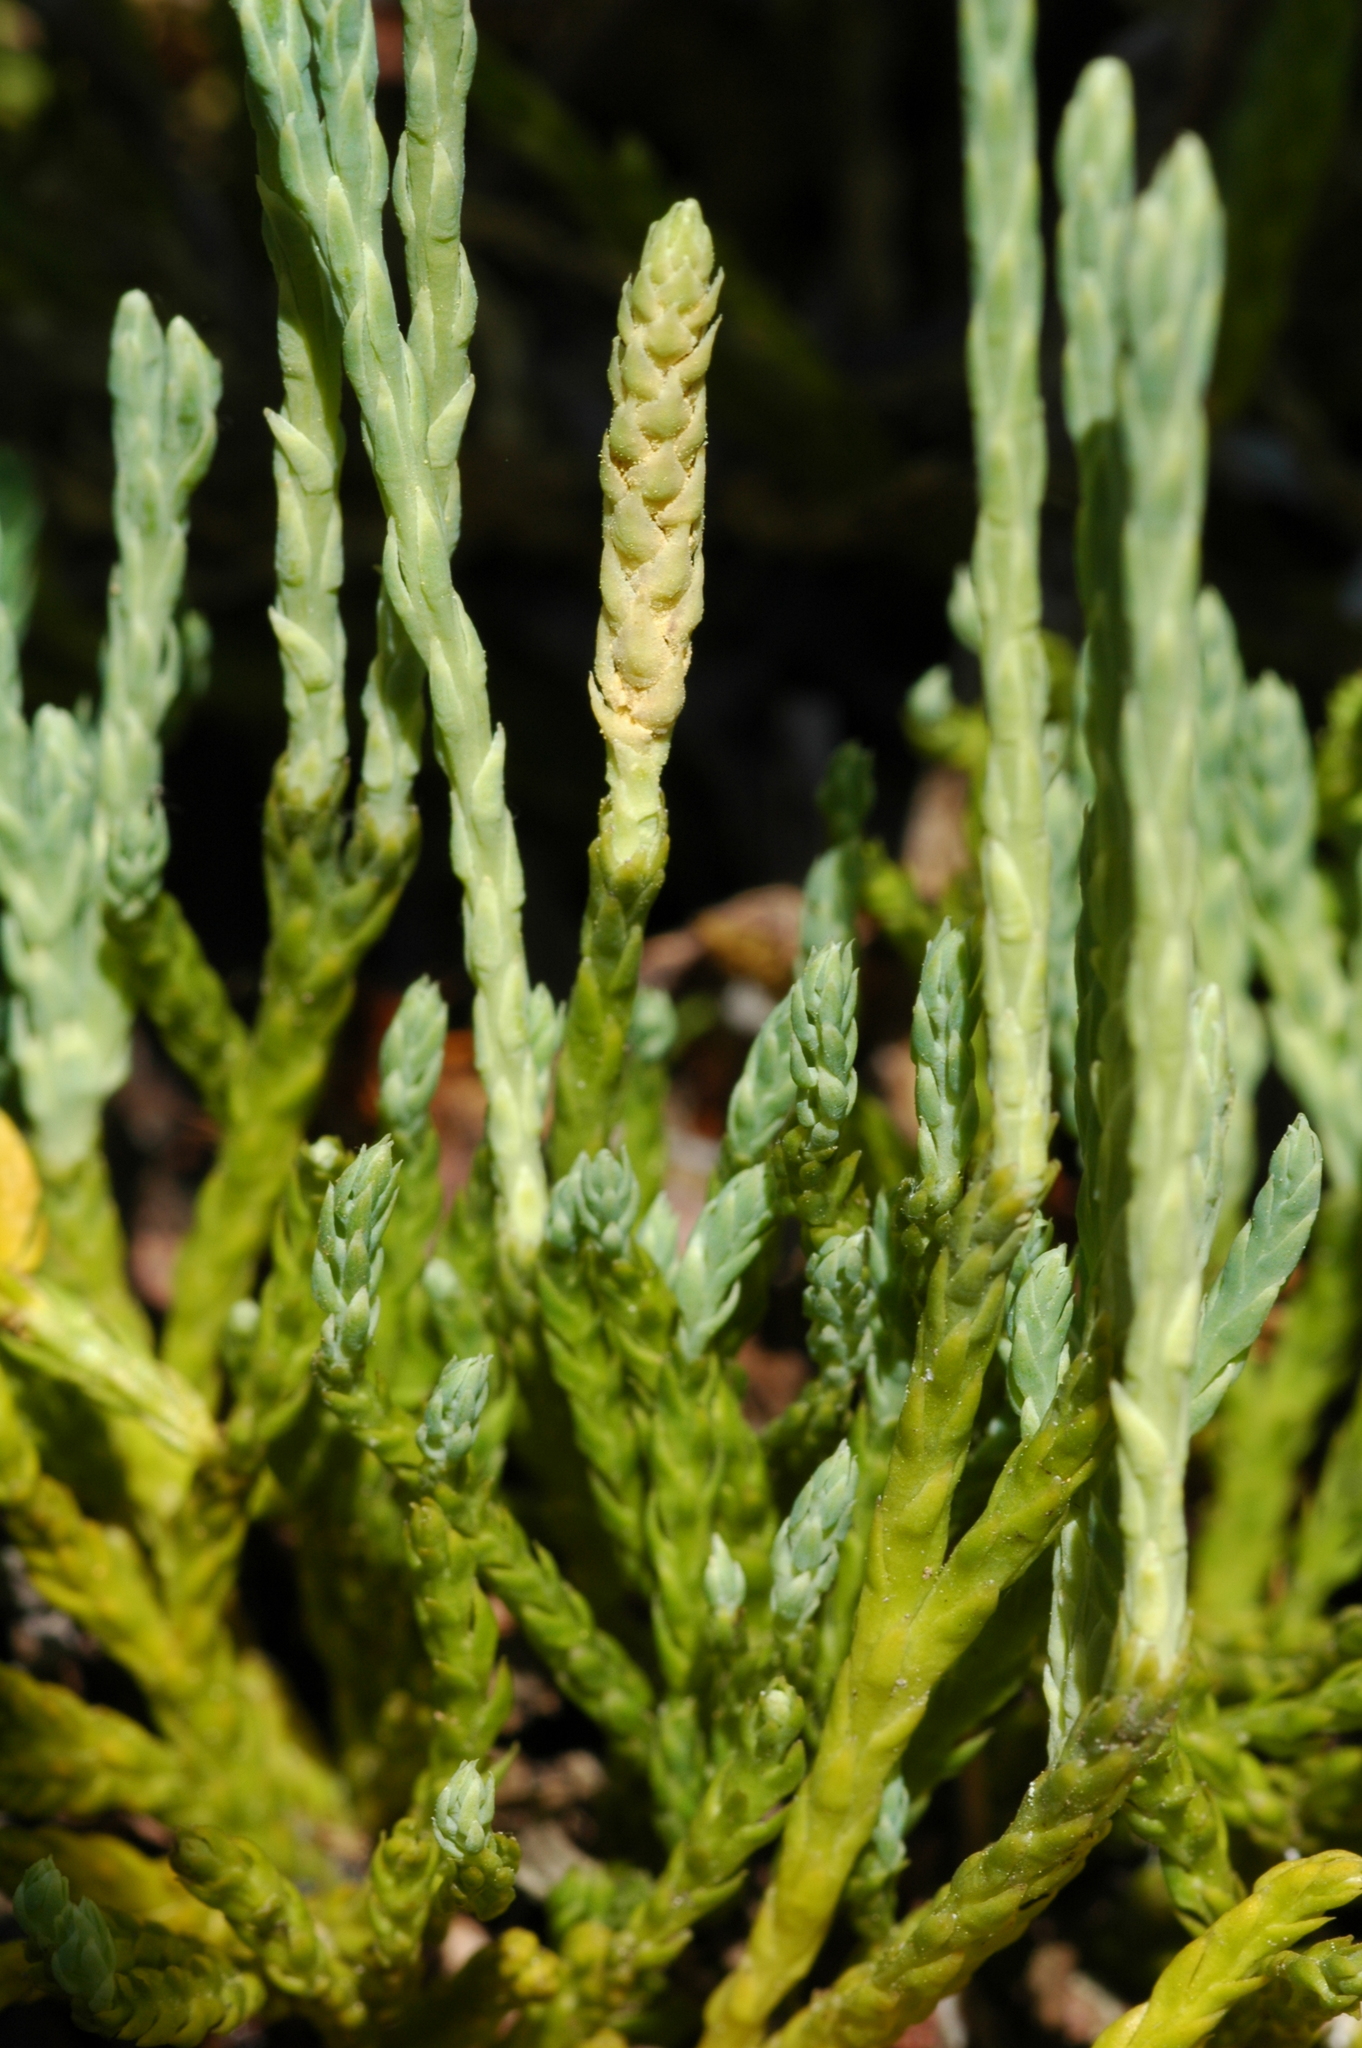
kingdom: Plantae
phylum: Tracheophyta
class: Lycopodiopsida
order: Lycopodiales
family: Lycopodiaceae
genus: Diphasiastrum
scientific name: Diphasiastrum alpinum
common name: Alpine clubmoss
